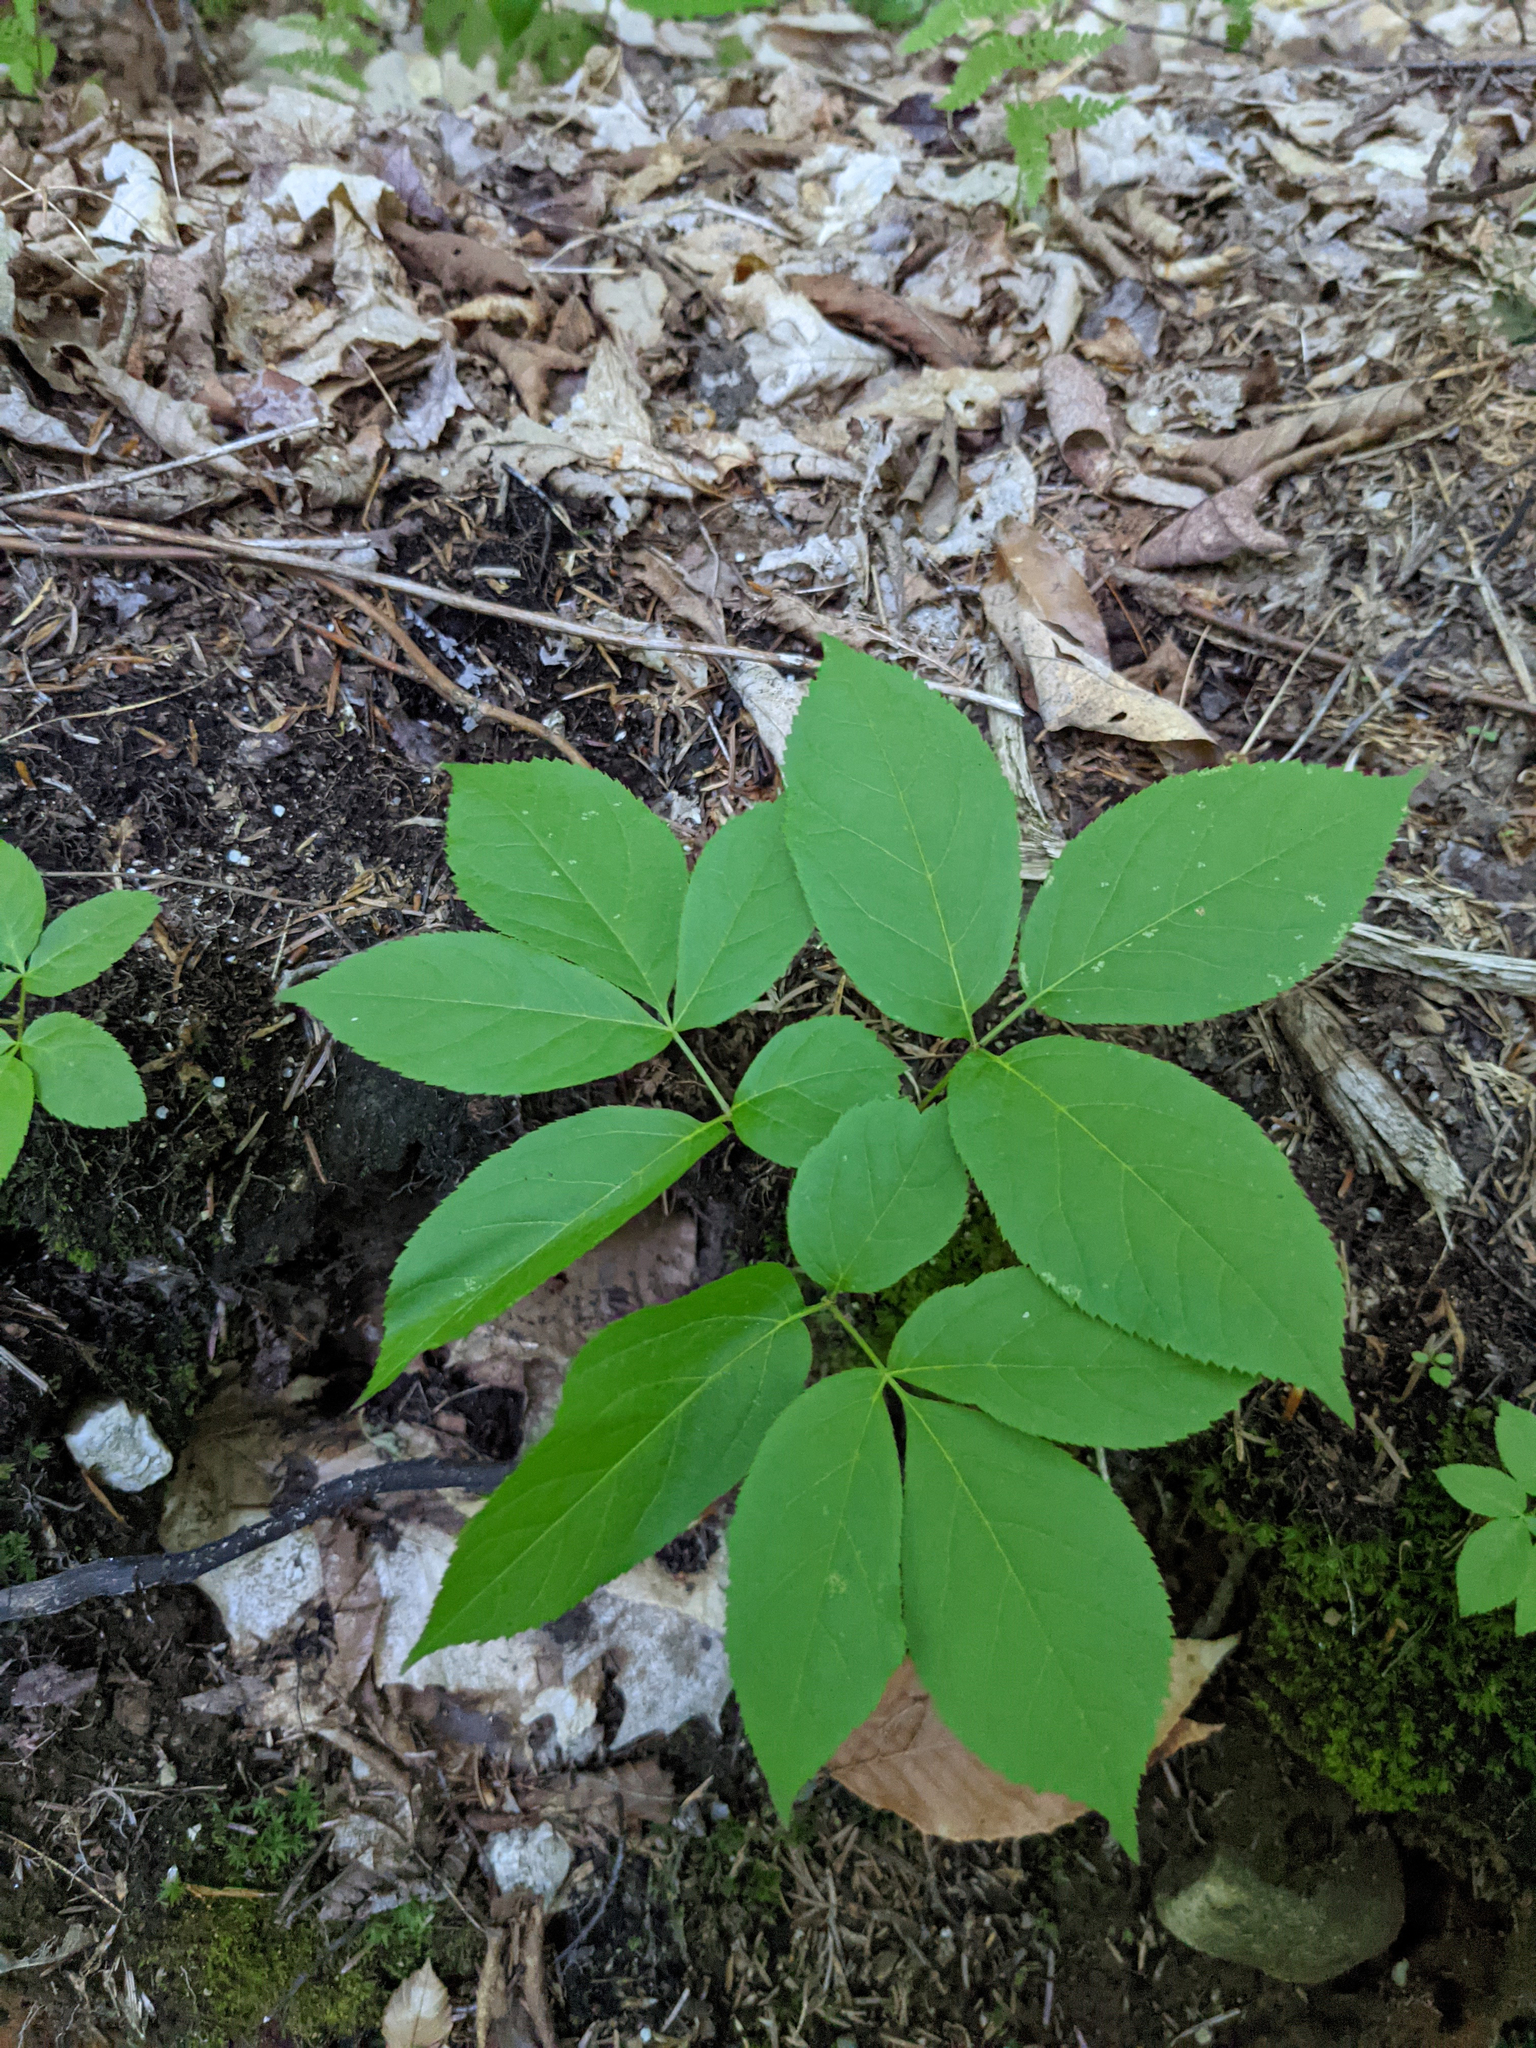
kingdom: Plantae
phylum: Tracheophyta
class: Magnoliopsida
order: Apiales
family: Araliaceae
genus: Aralia
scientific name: Aralia nudicaulis
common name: Wild sarsaparilla
